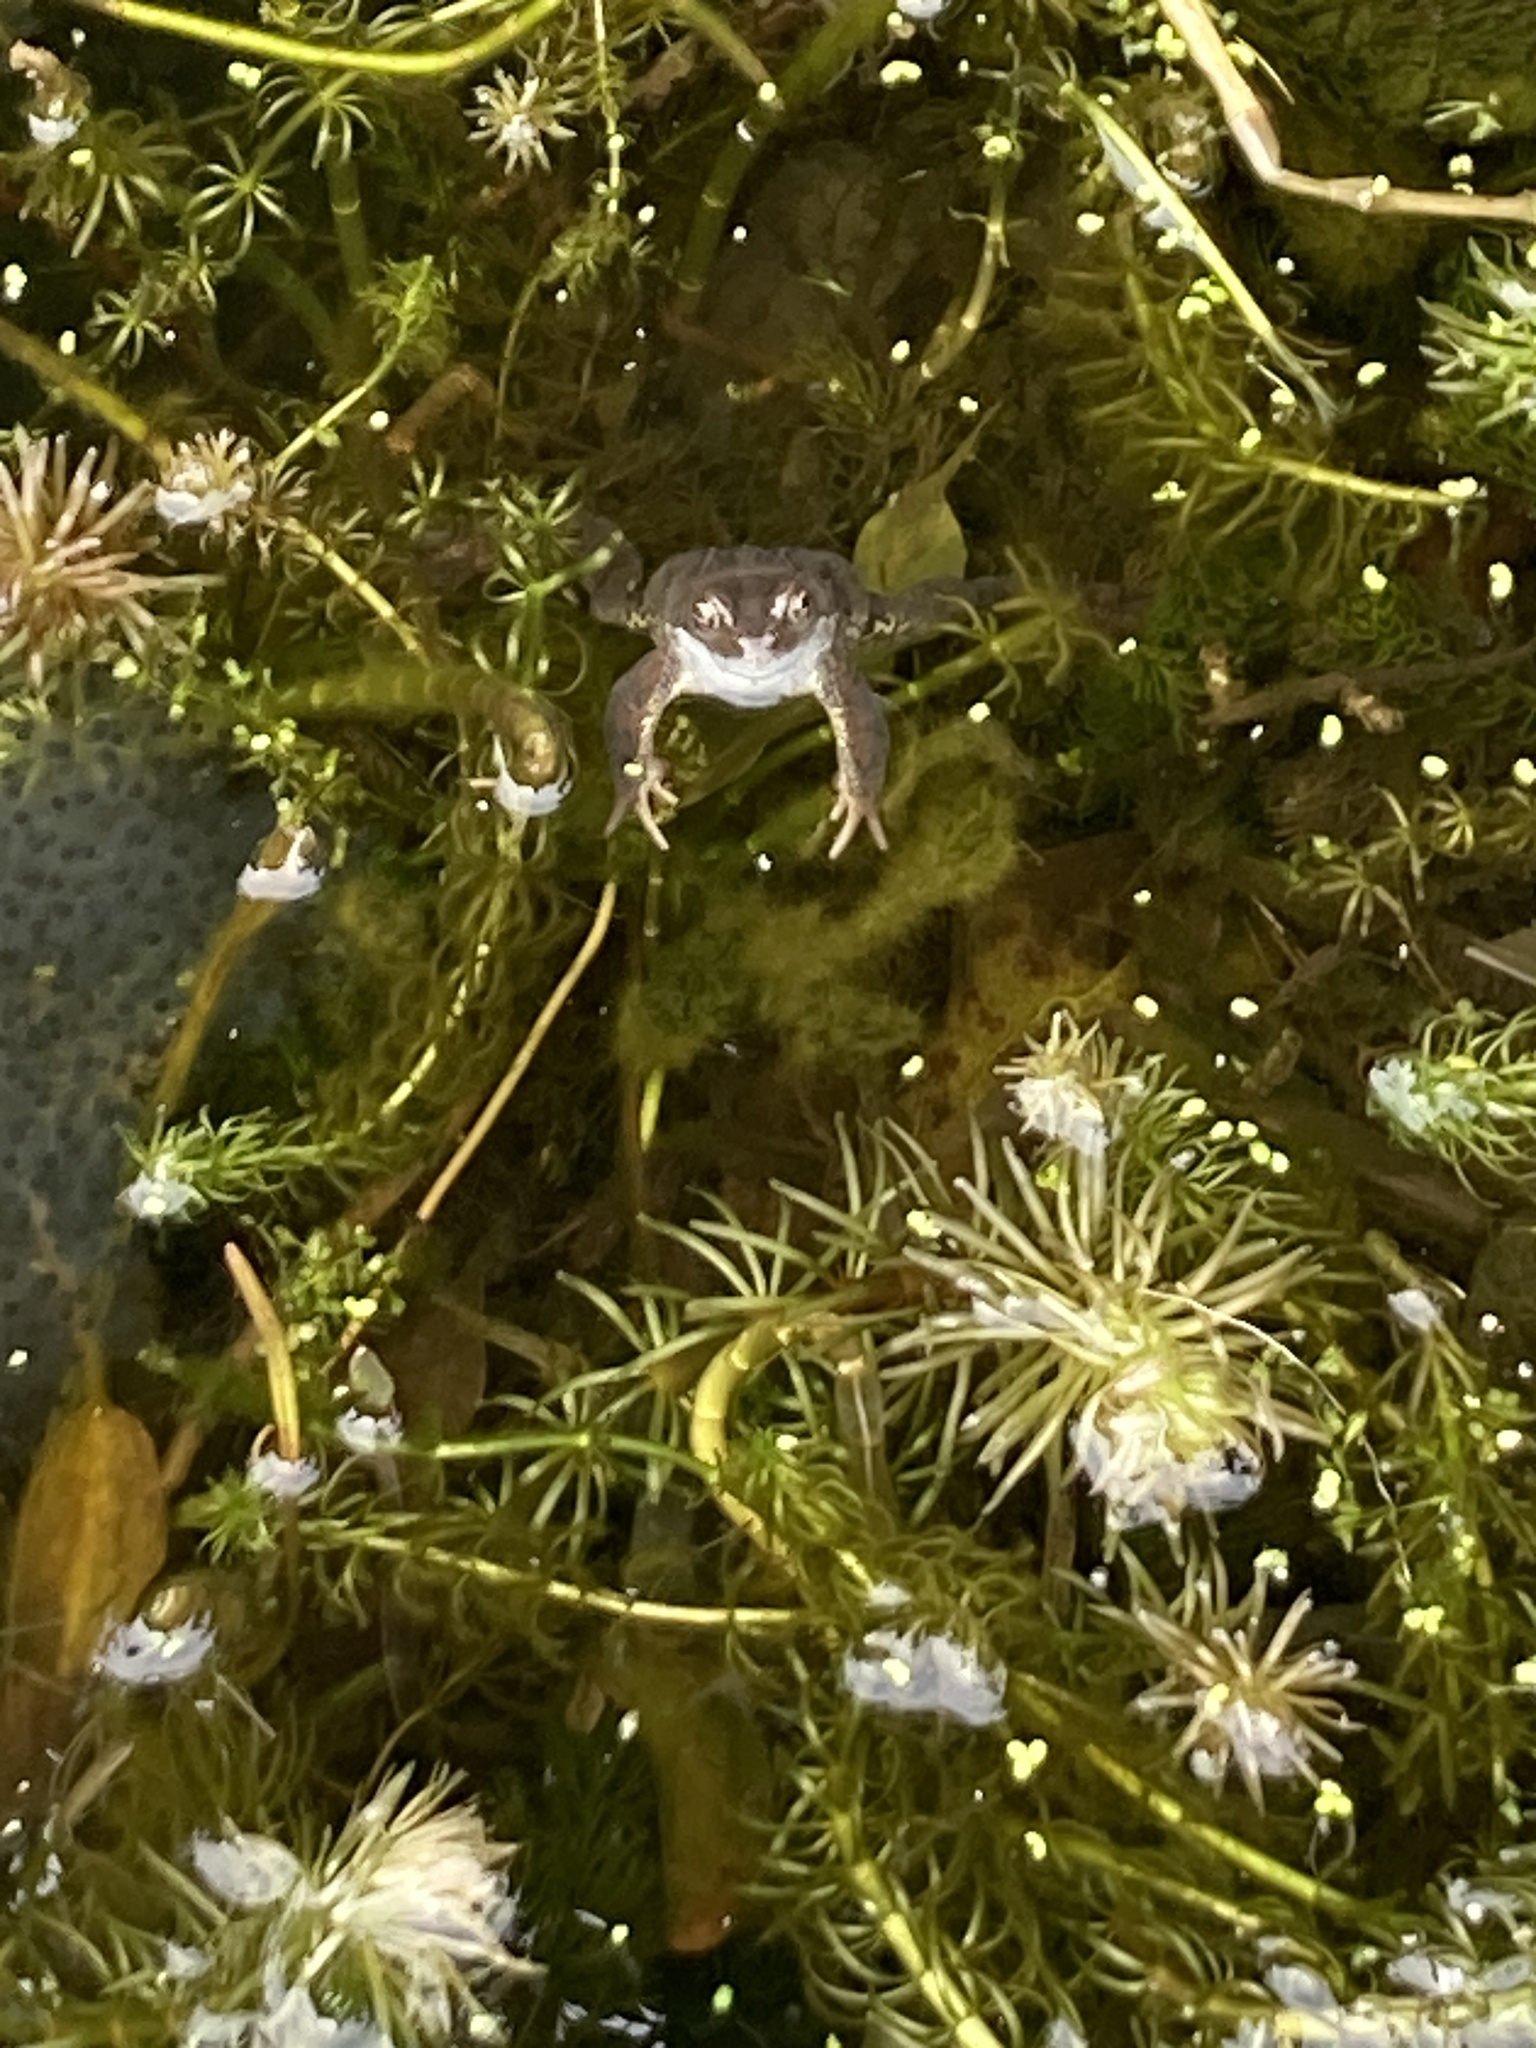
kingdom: Animalia
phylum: Chordata
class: Amphibia
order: Anura
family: Ranidae
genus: Rana
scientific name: Rana temporaria
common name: Common frog
